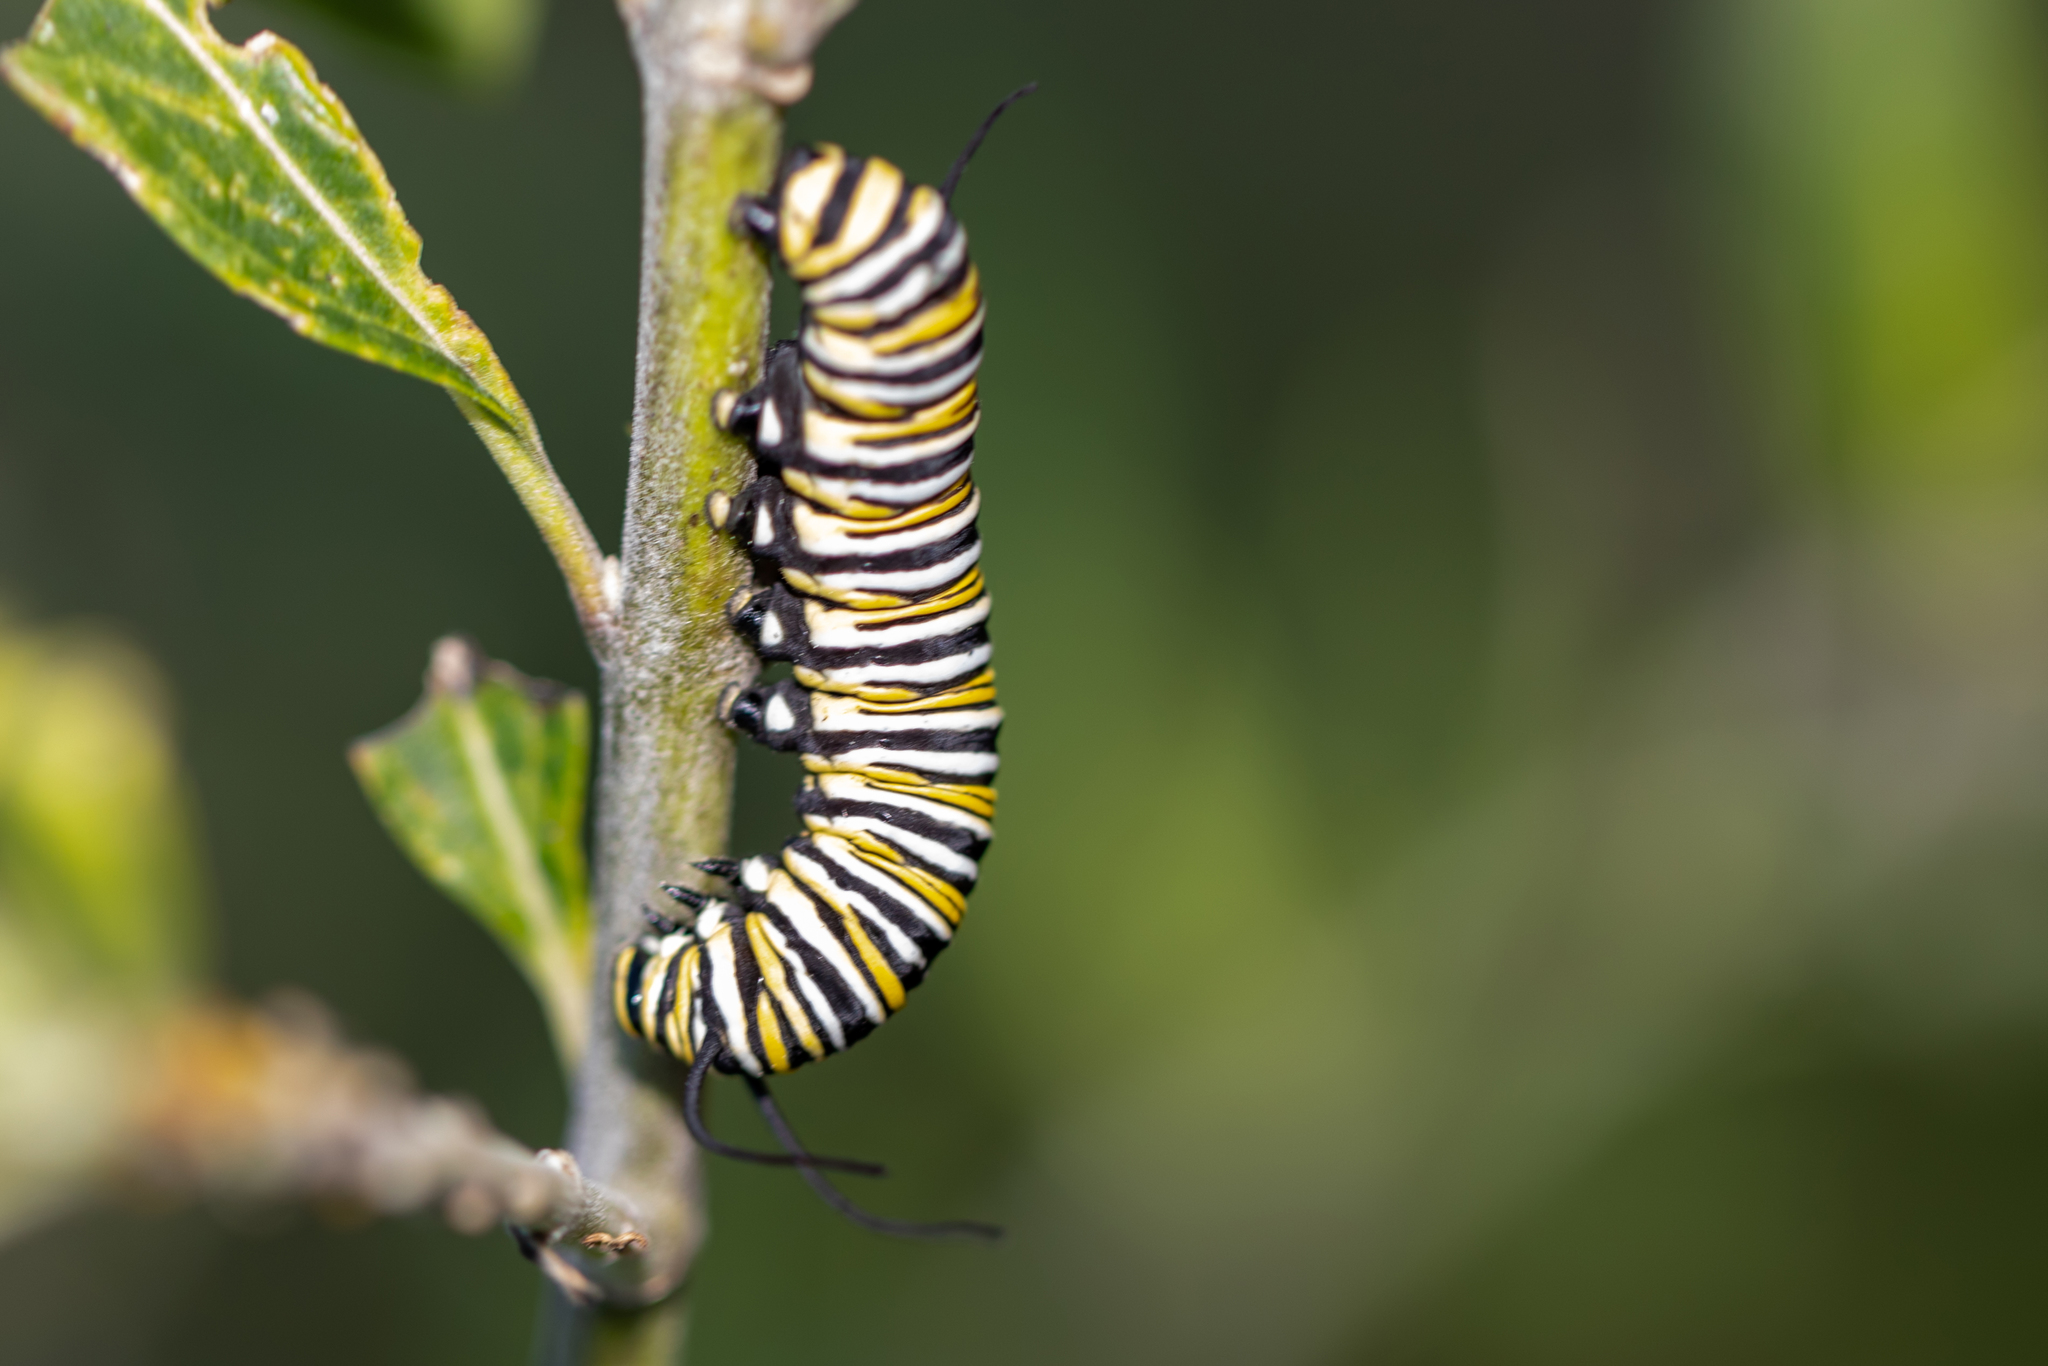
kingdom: Animalia
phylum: Arthropoda
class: Insecta
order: Lepidoptera
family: Nymphalidae
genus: Danaus
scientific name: Danaus plexippus
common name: Monarch
